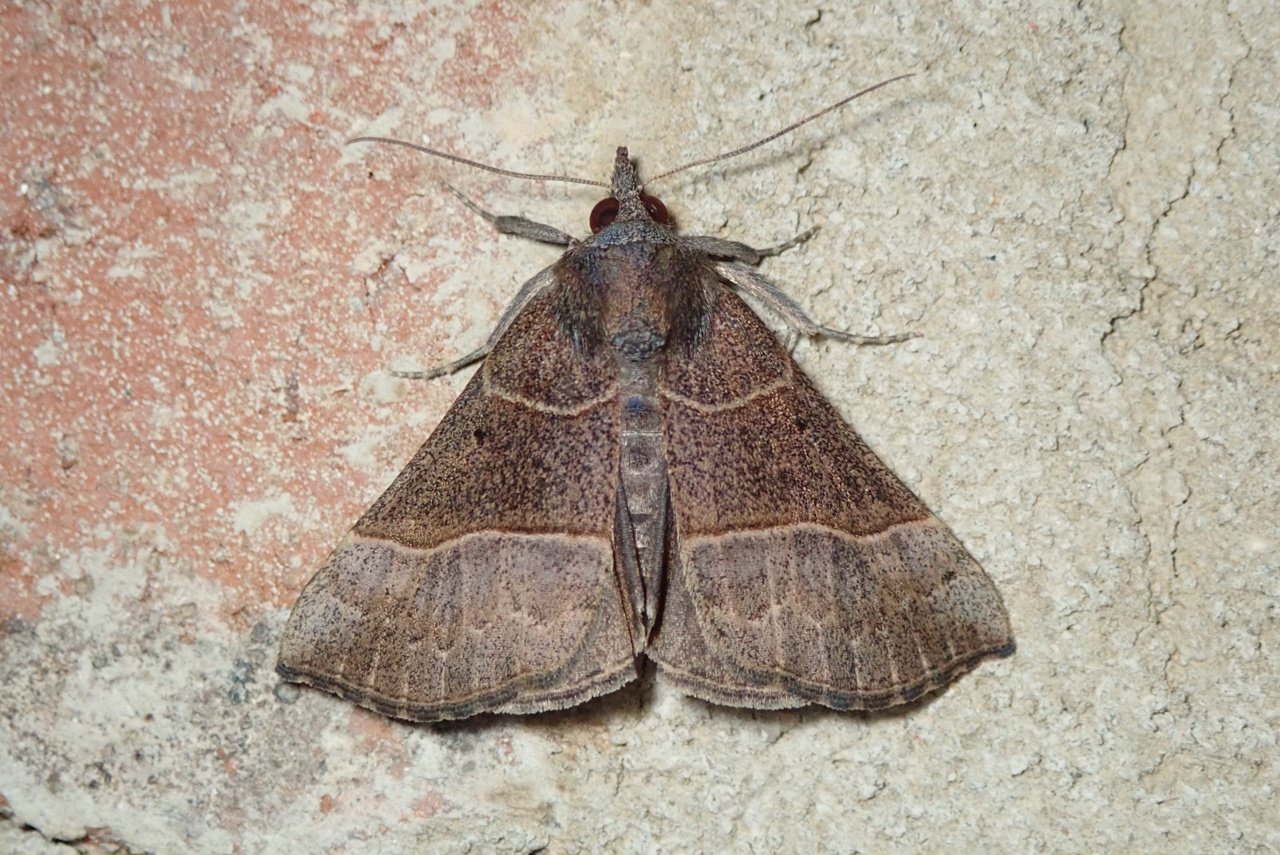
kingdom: Animalia
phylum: Arthropoda
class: Insecta
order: Lepidoptera
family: Erebidae
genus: Hypena
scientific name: Hypena deceptalis
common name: Deceptive snout
